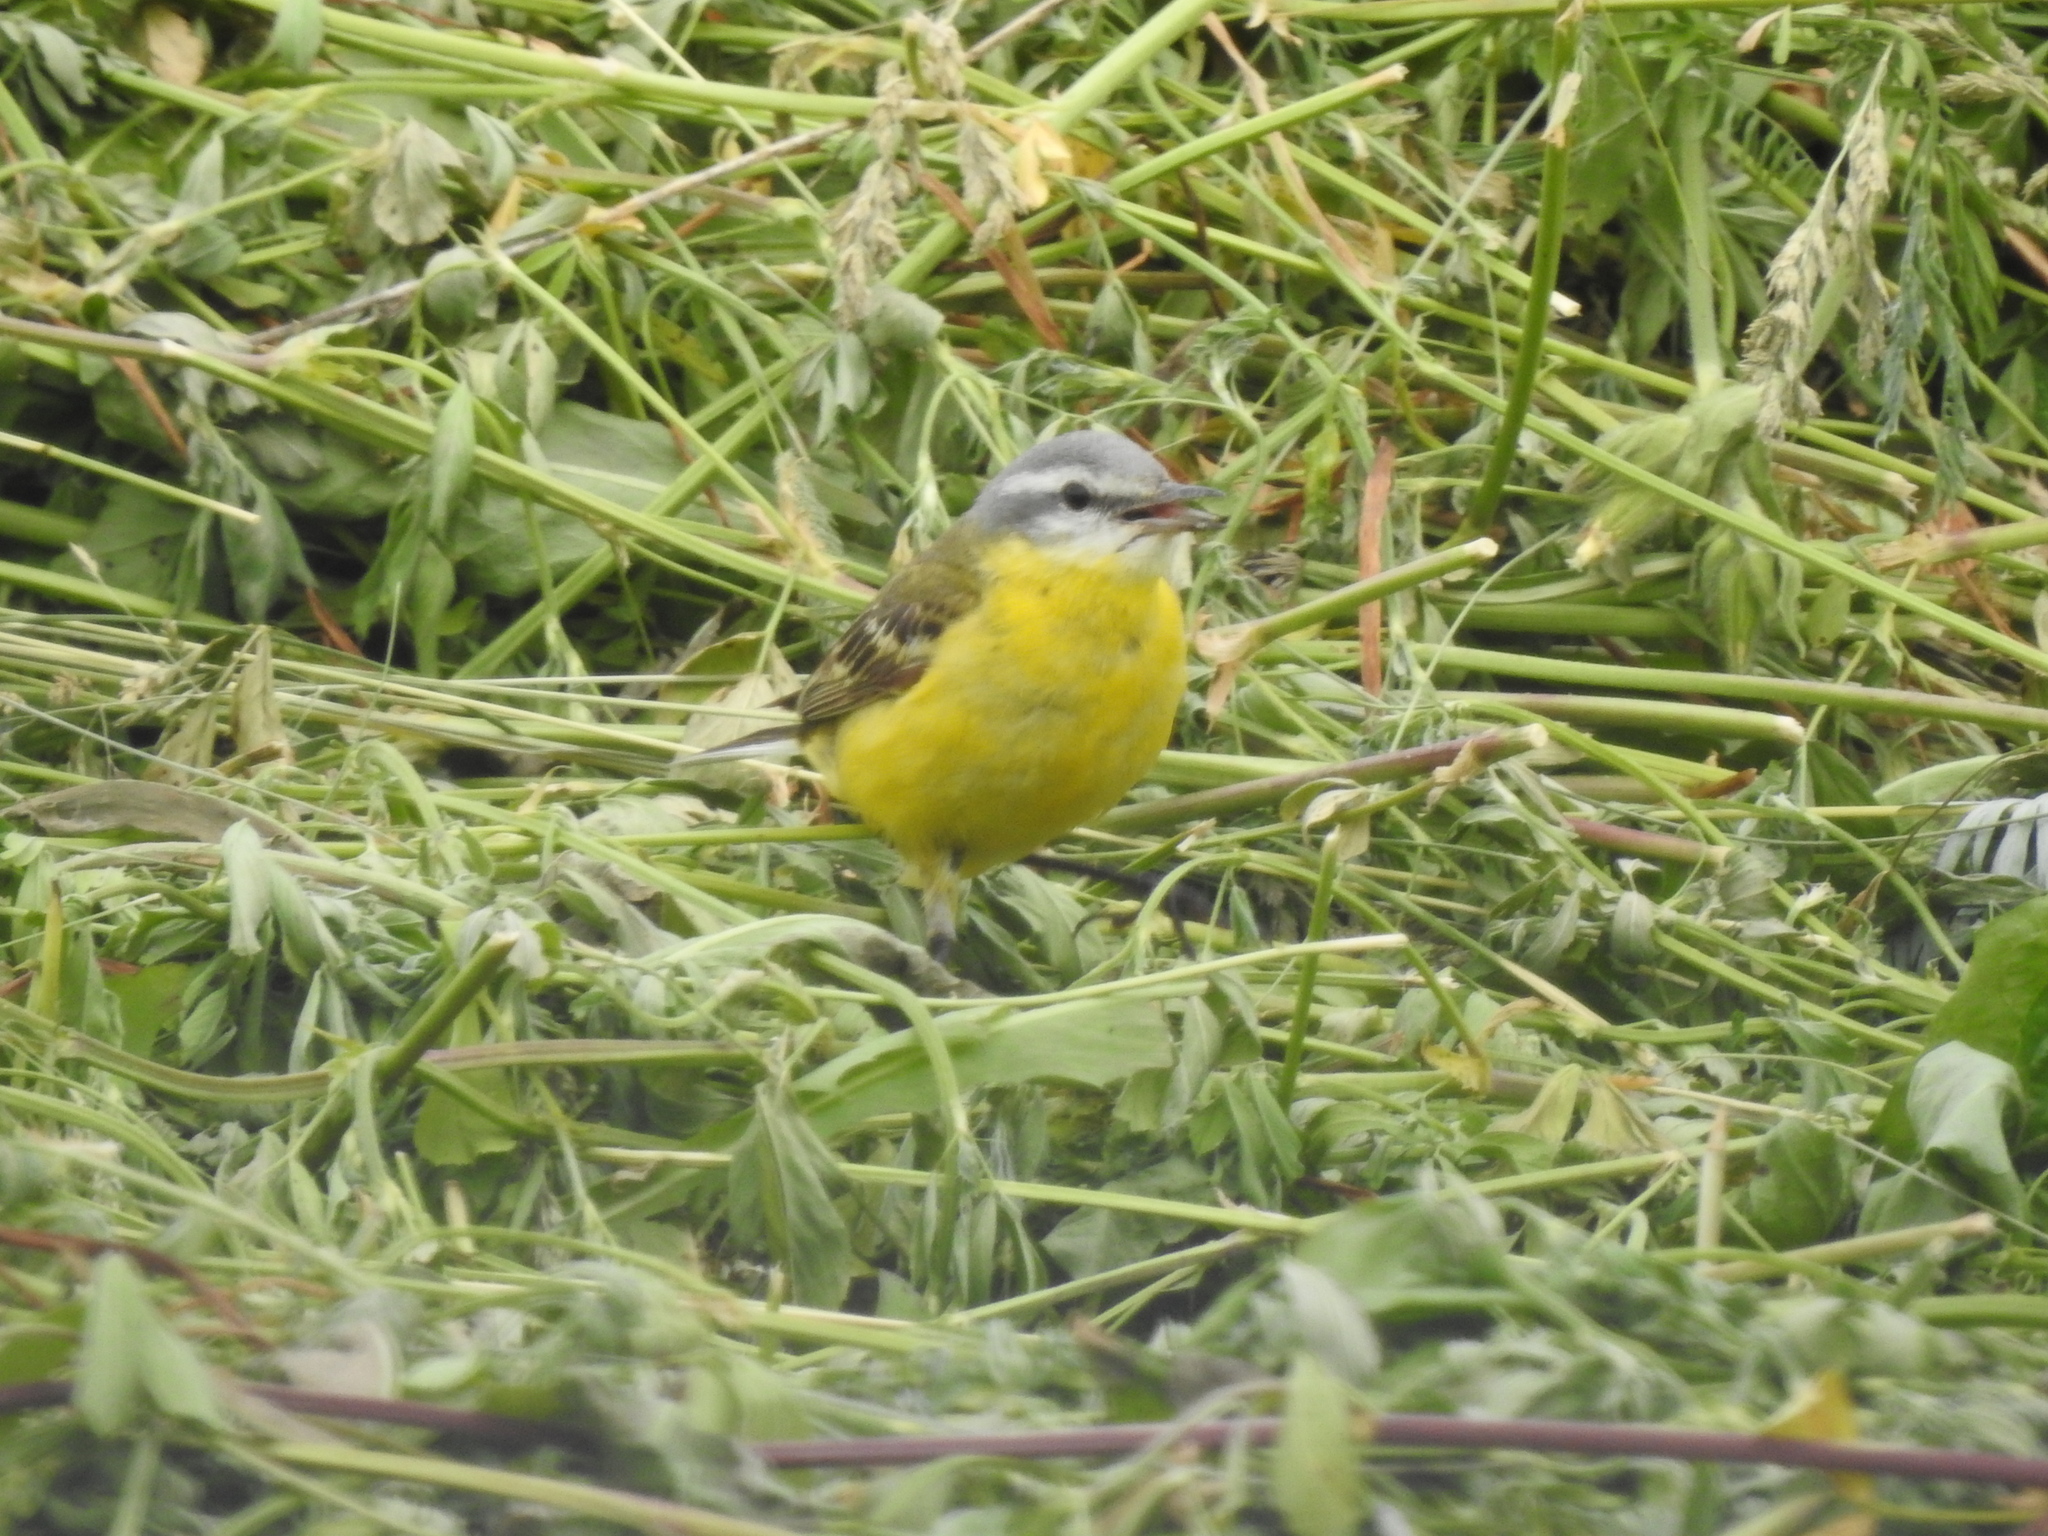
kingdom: Animalia
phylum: Chordata
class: Aves
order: Passeriformes
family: Motacillidae
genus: Motacilla
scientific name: Motacilla flava
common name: Western yellow wagtail
